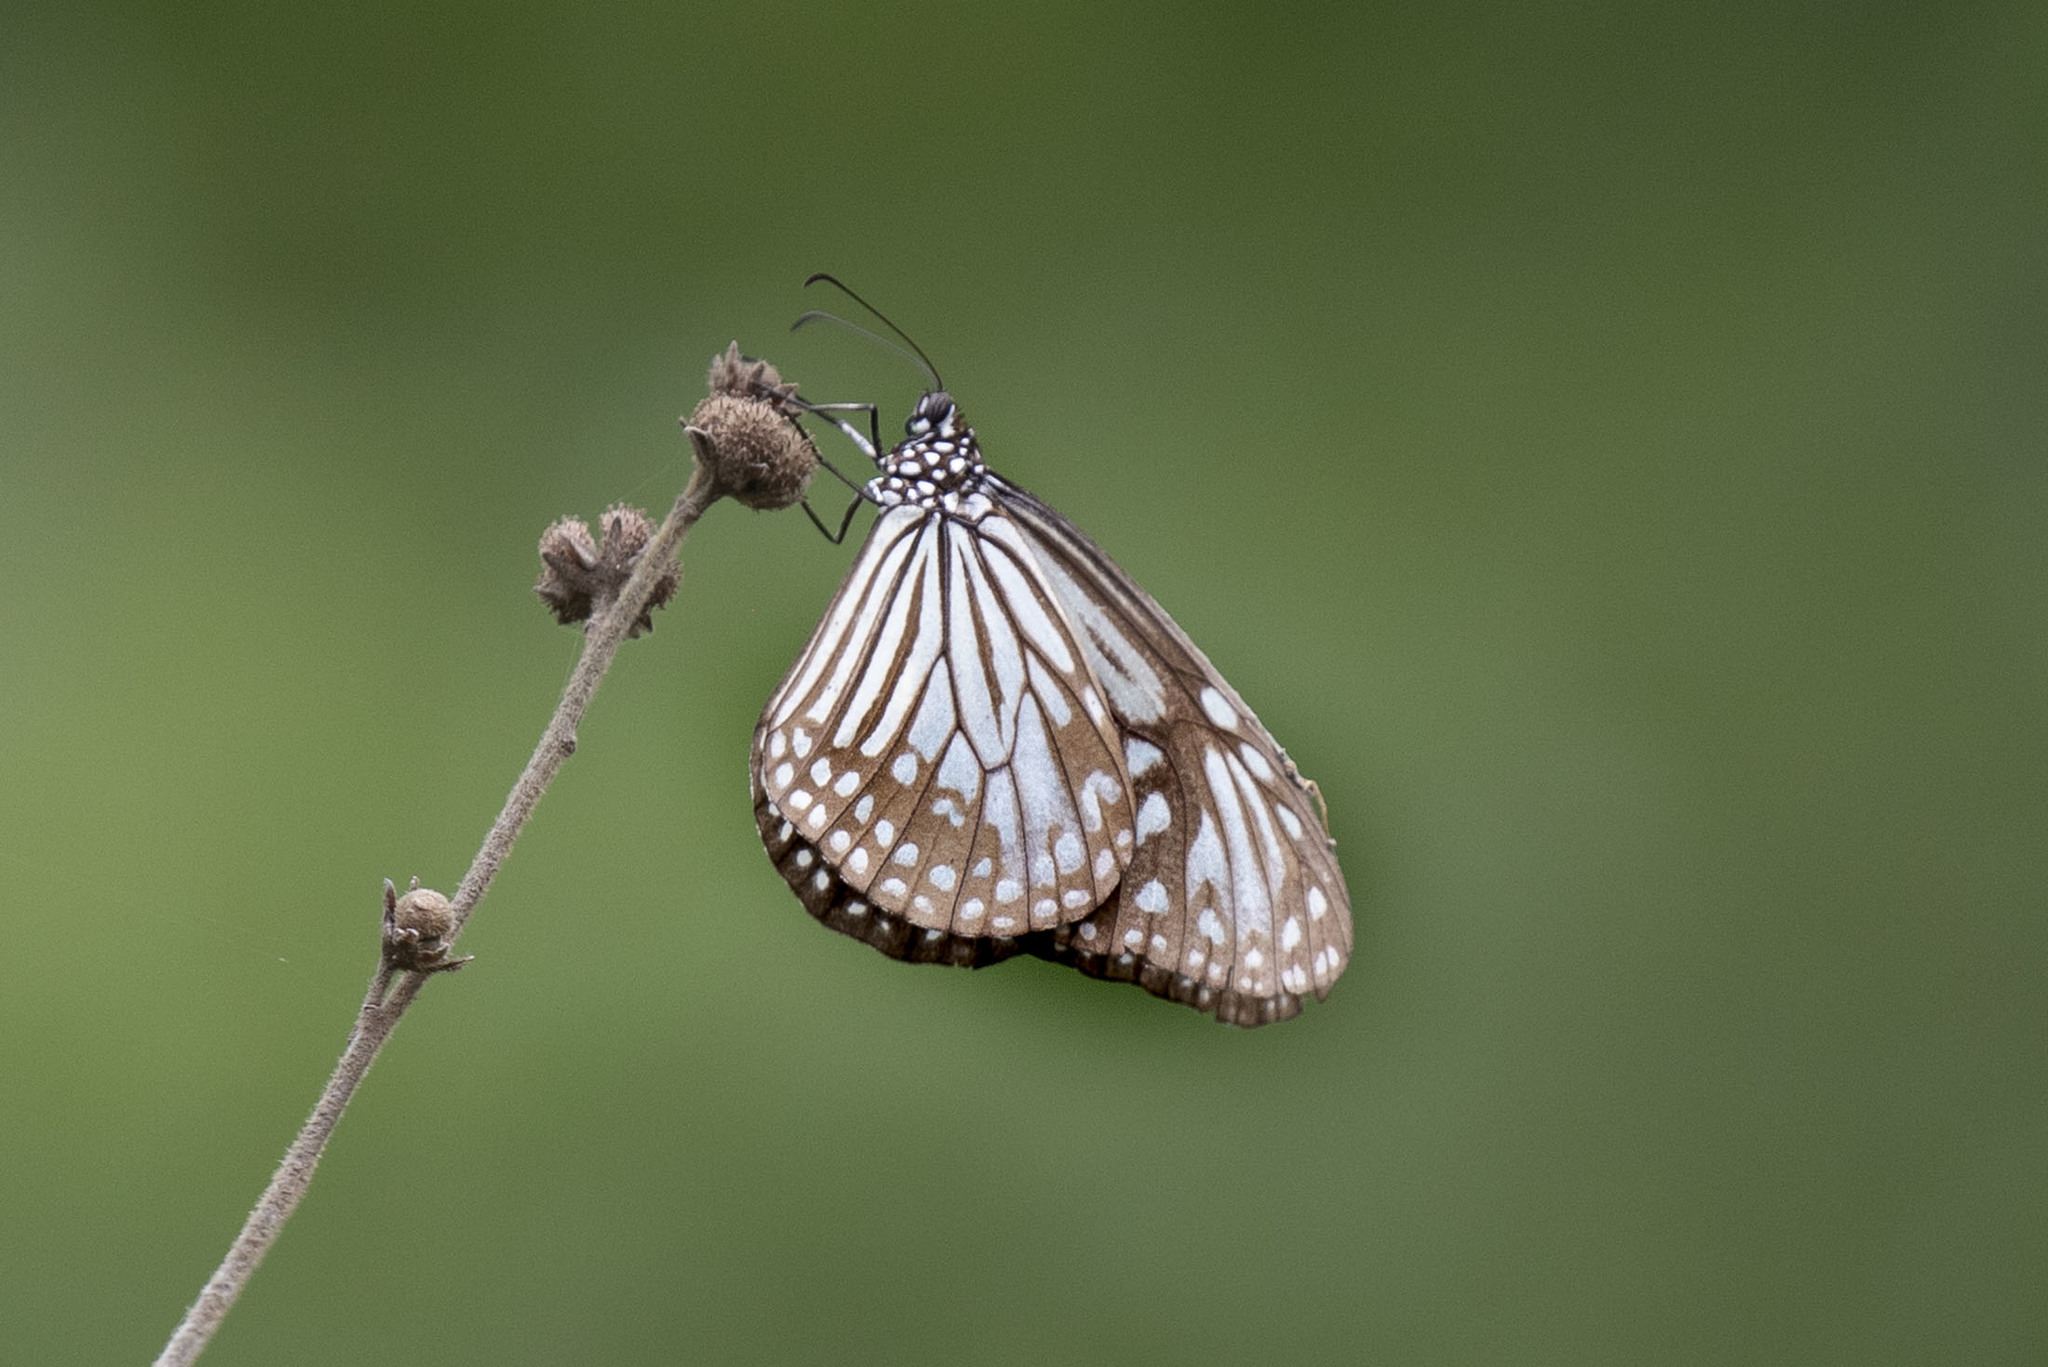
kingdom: Animalia
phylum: Arthropoda
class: Insecta
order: Lepidoptera
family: Nymphalidae
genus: Parantica
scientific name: Parantica aglea
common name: Glassy tiger
